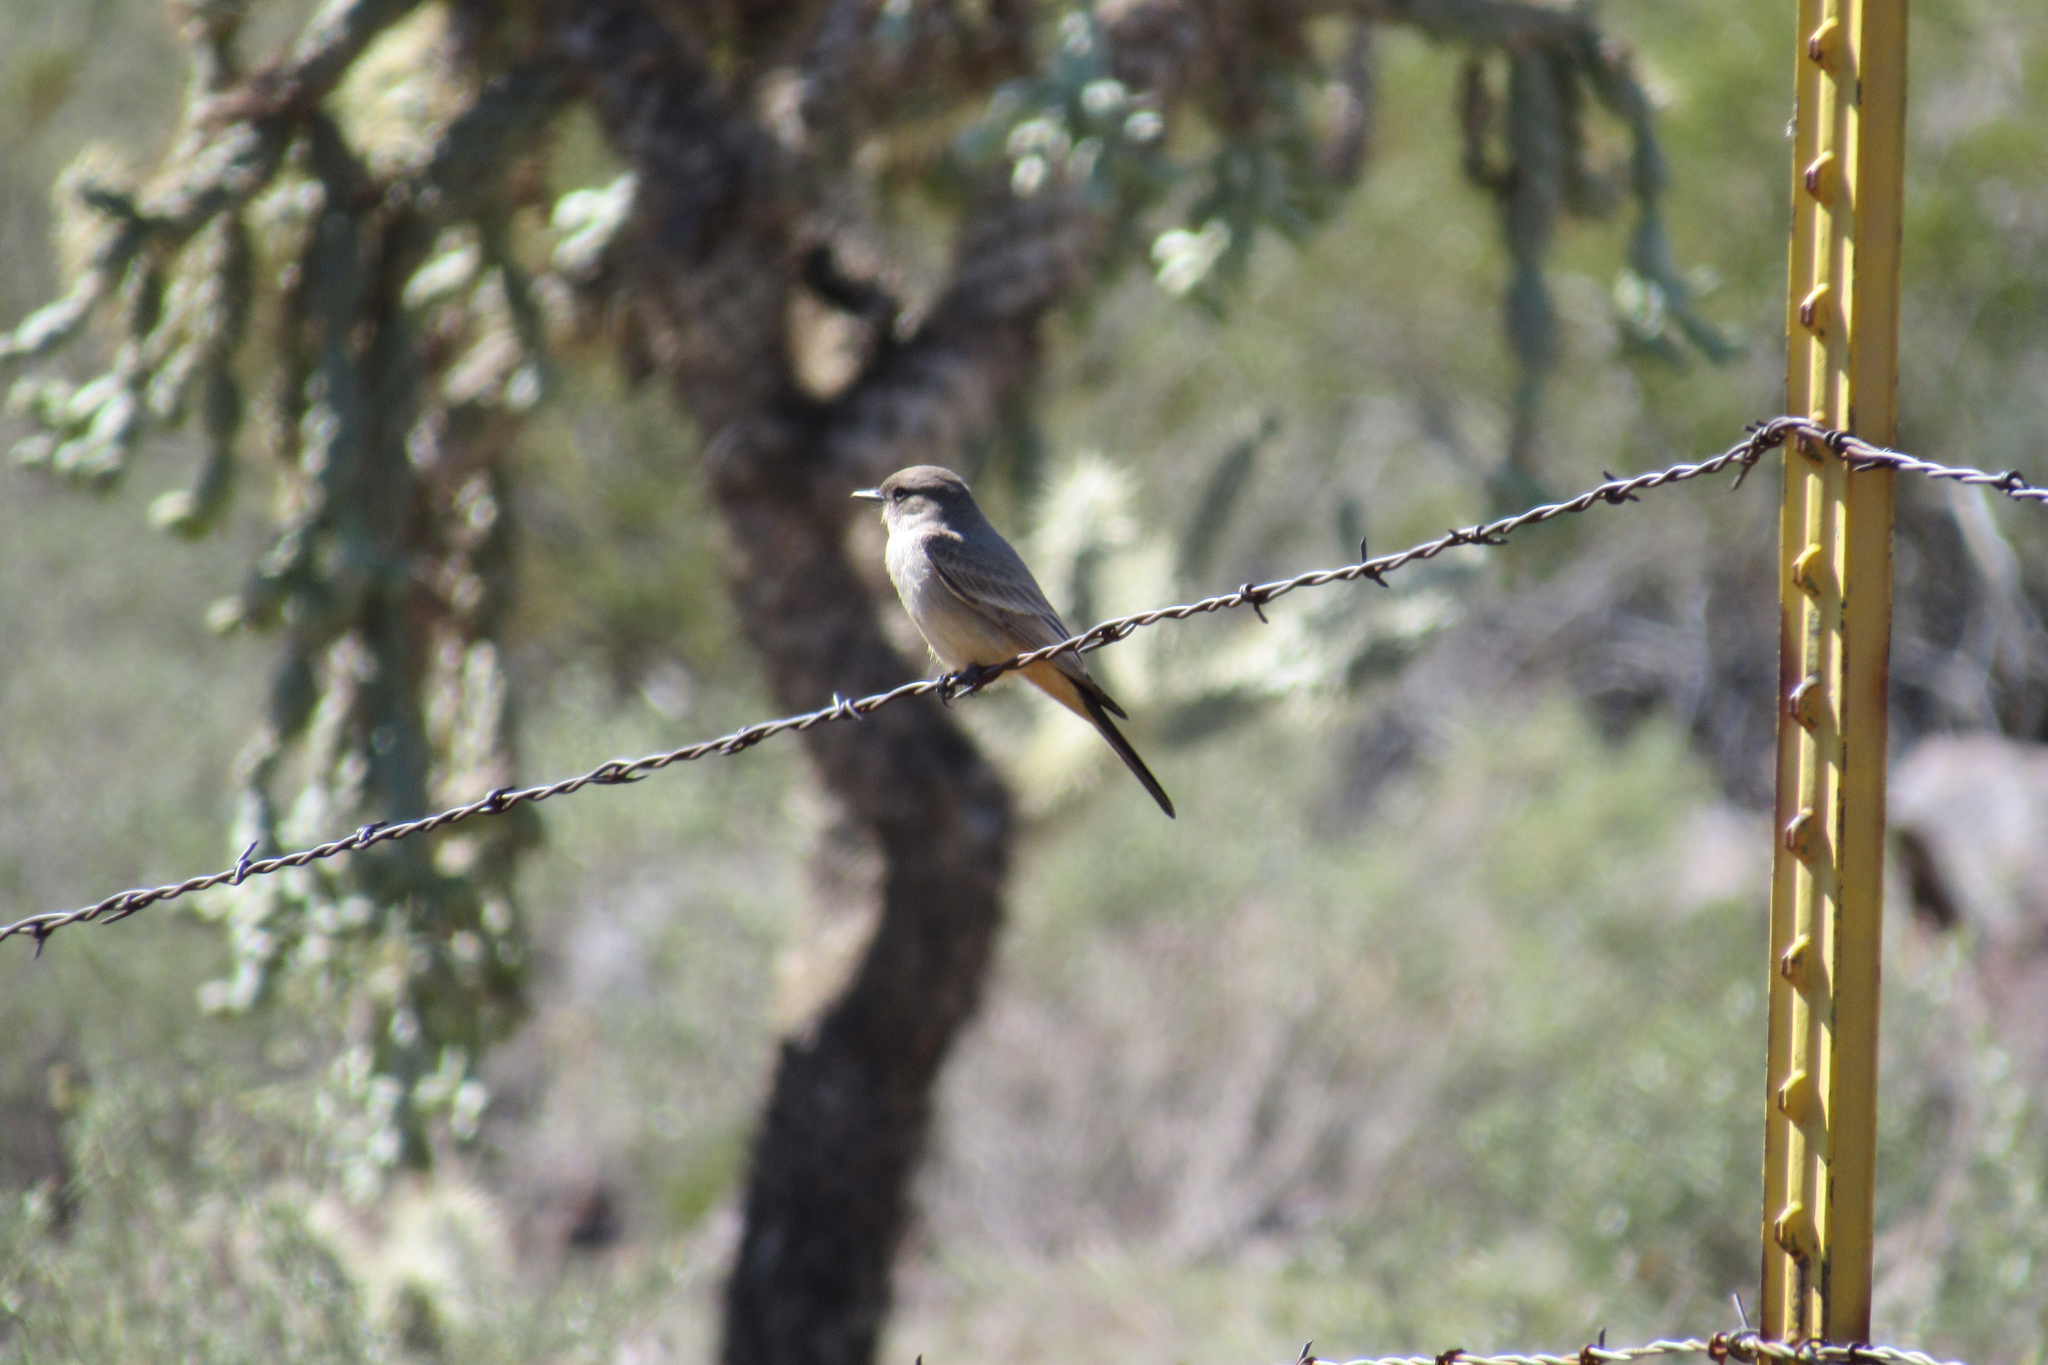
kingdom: Animalia
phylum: Chordata
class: Aves
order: Passeriformes
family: Tyrannidae
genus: Sayornis
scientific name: Sayornis saya
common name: Say's phoebe
